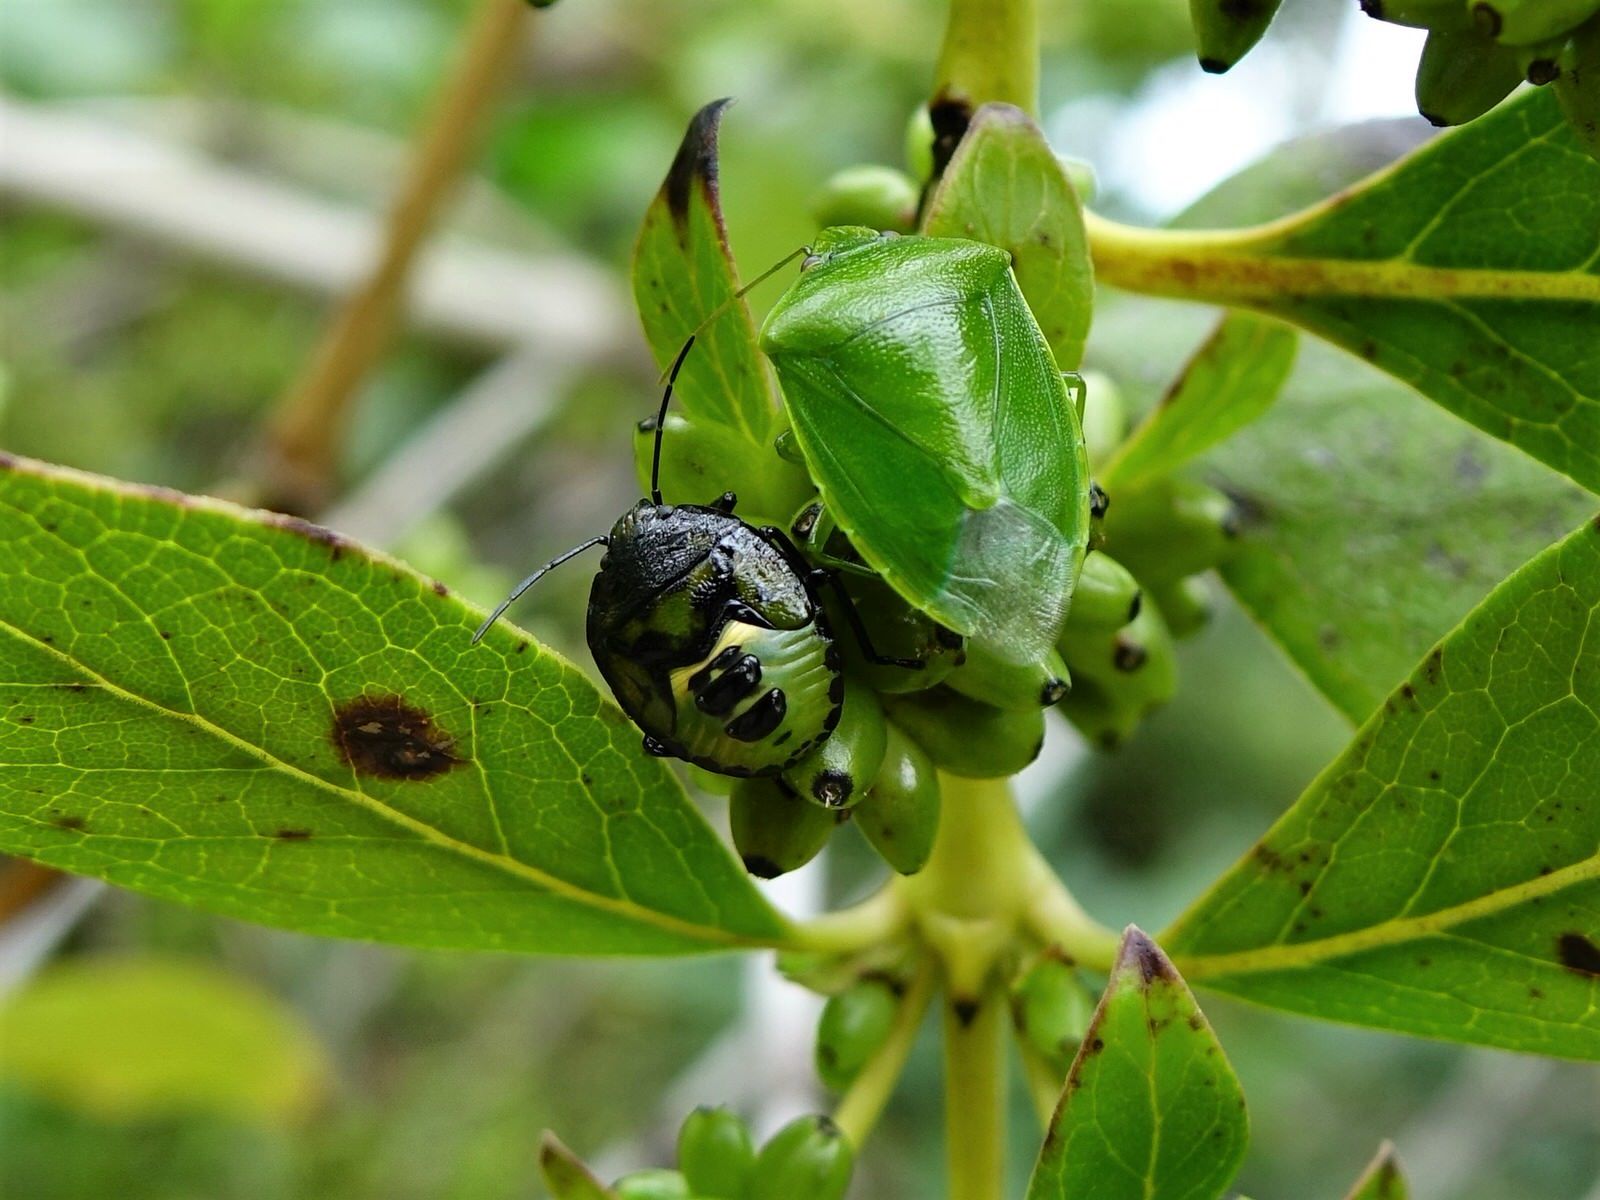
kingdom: Animalia
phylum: Arthropoda
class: Insecta
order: Hemiptera
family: Pentatomidae
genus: Glaucias
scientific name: Glaucias amyota
